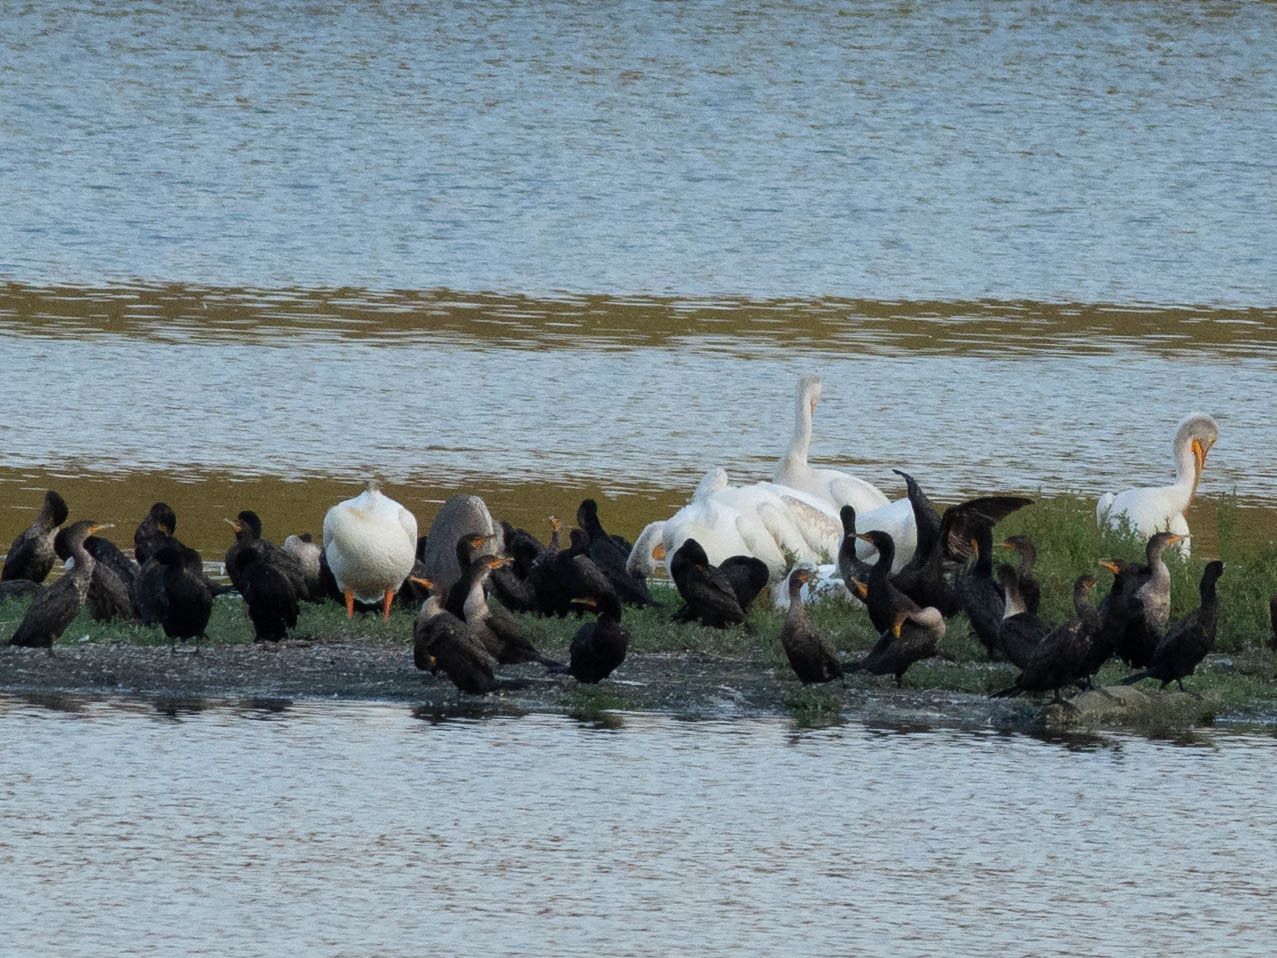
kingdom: Animalia
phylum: Chordata
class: Aves
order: Pelecaniformes
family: Pelecanidae
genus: Pelecanus
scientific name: Pelecanus erythrorhynchos
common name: American white pelican
